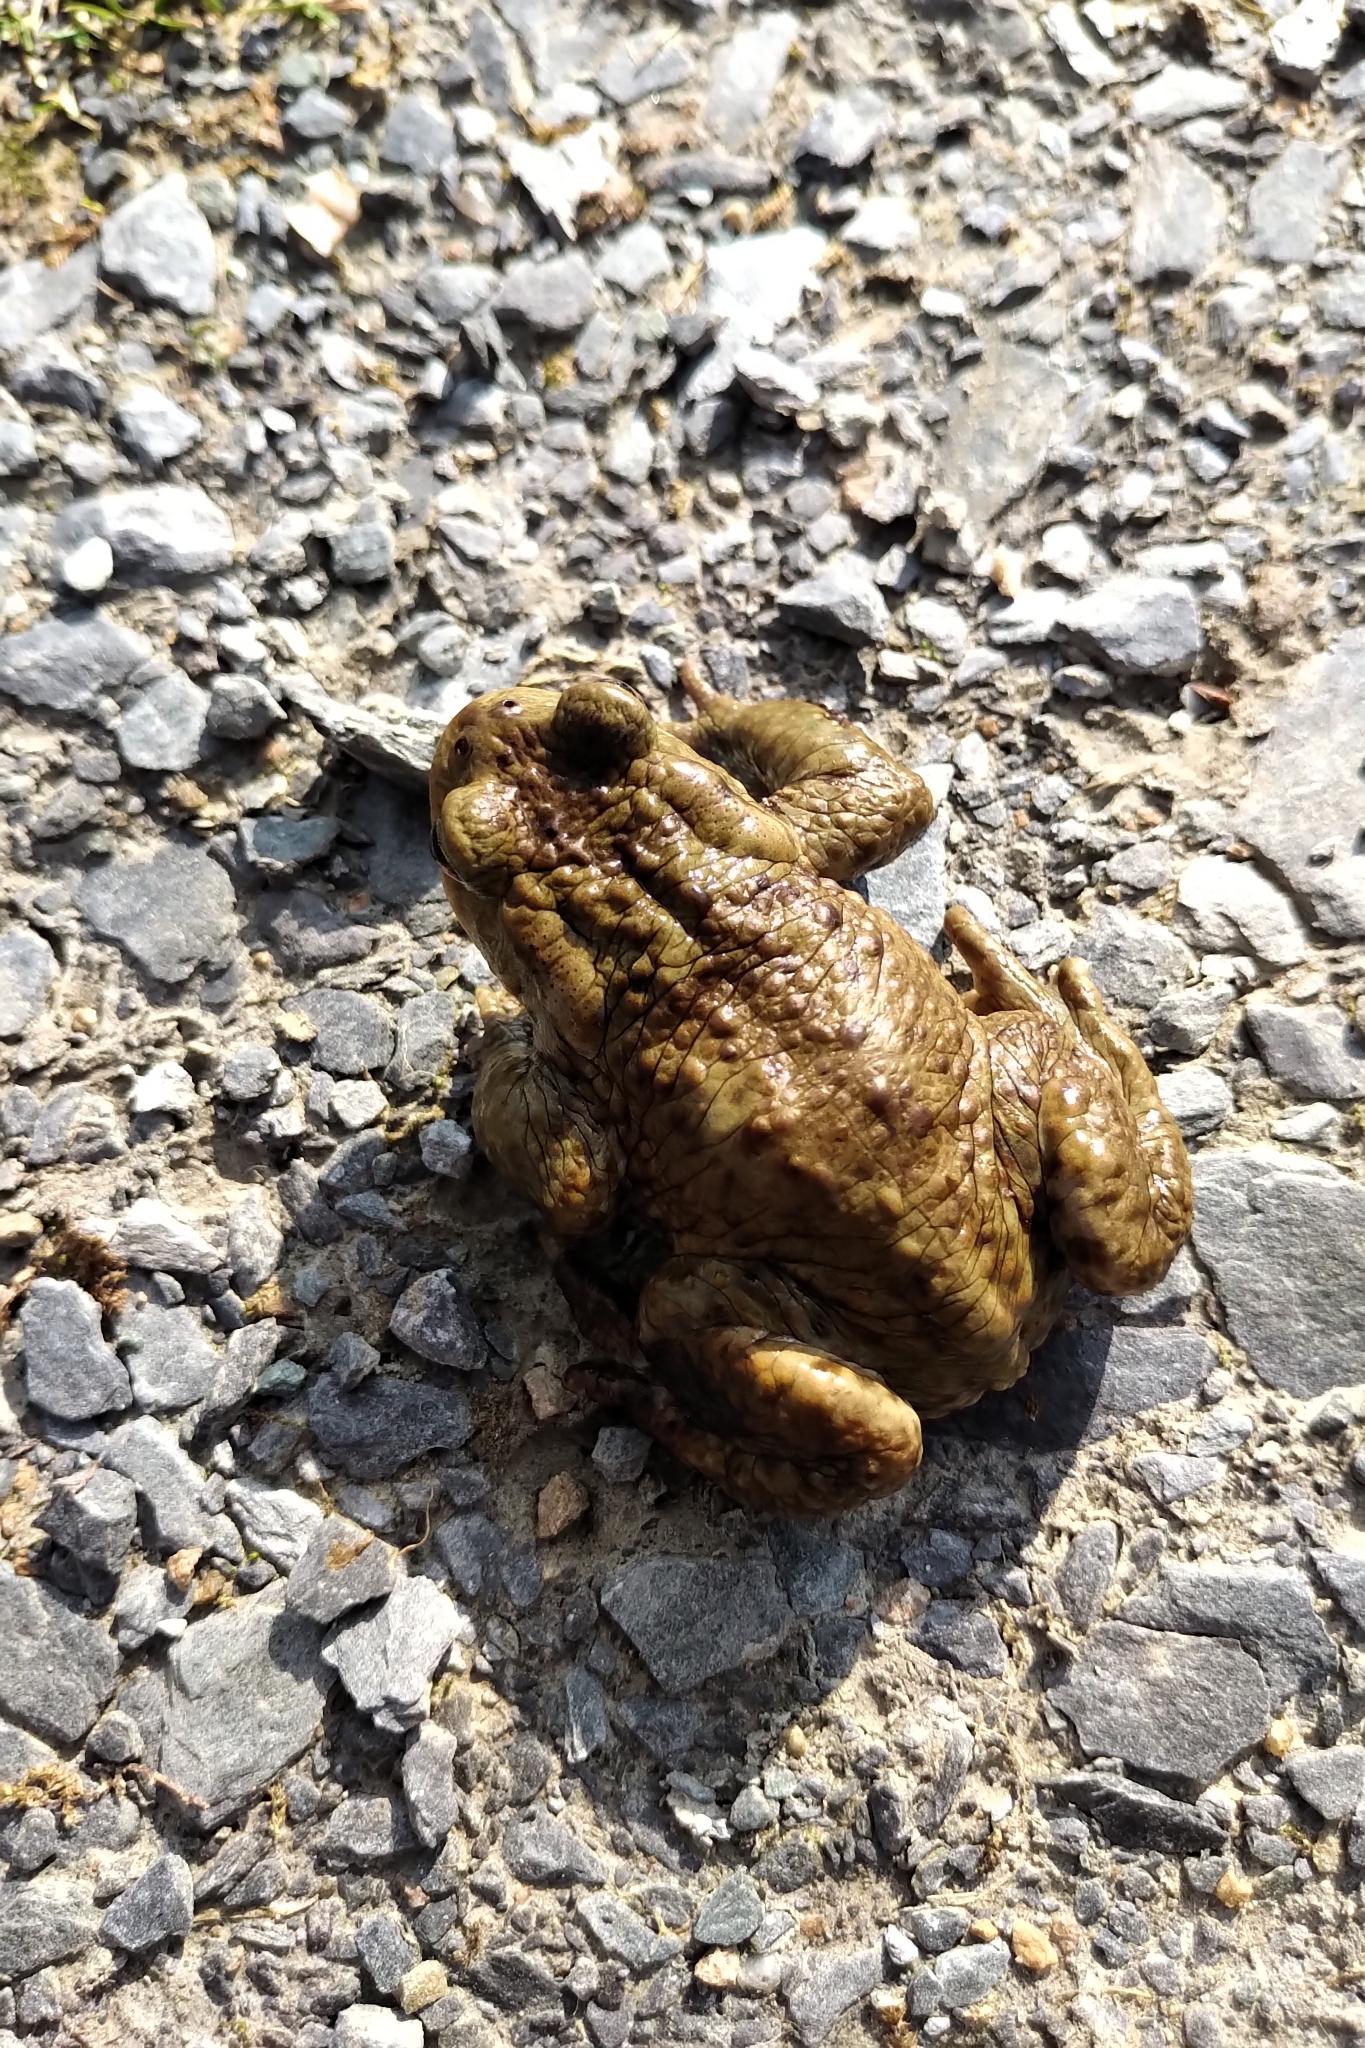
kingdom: Animalia
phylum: Chordata
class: Amphibia
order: Anura
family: Bufonidae
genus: Bufo
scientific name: Bufo bufo
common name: Common toad
